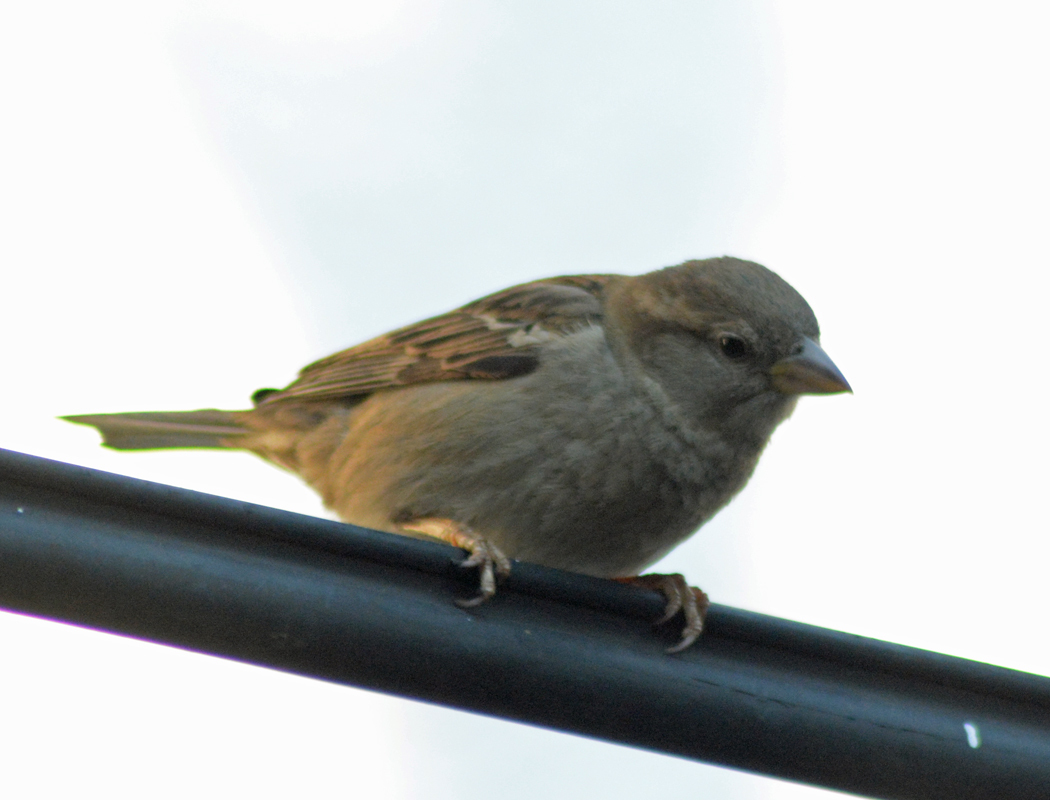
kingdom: Animalia
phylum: Chordata
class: Aves
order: Passeriformes
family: Passeridae
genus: Passer
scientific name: Passer domesticus
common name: House sparrow
